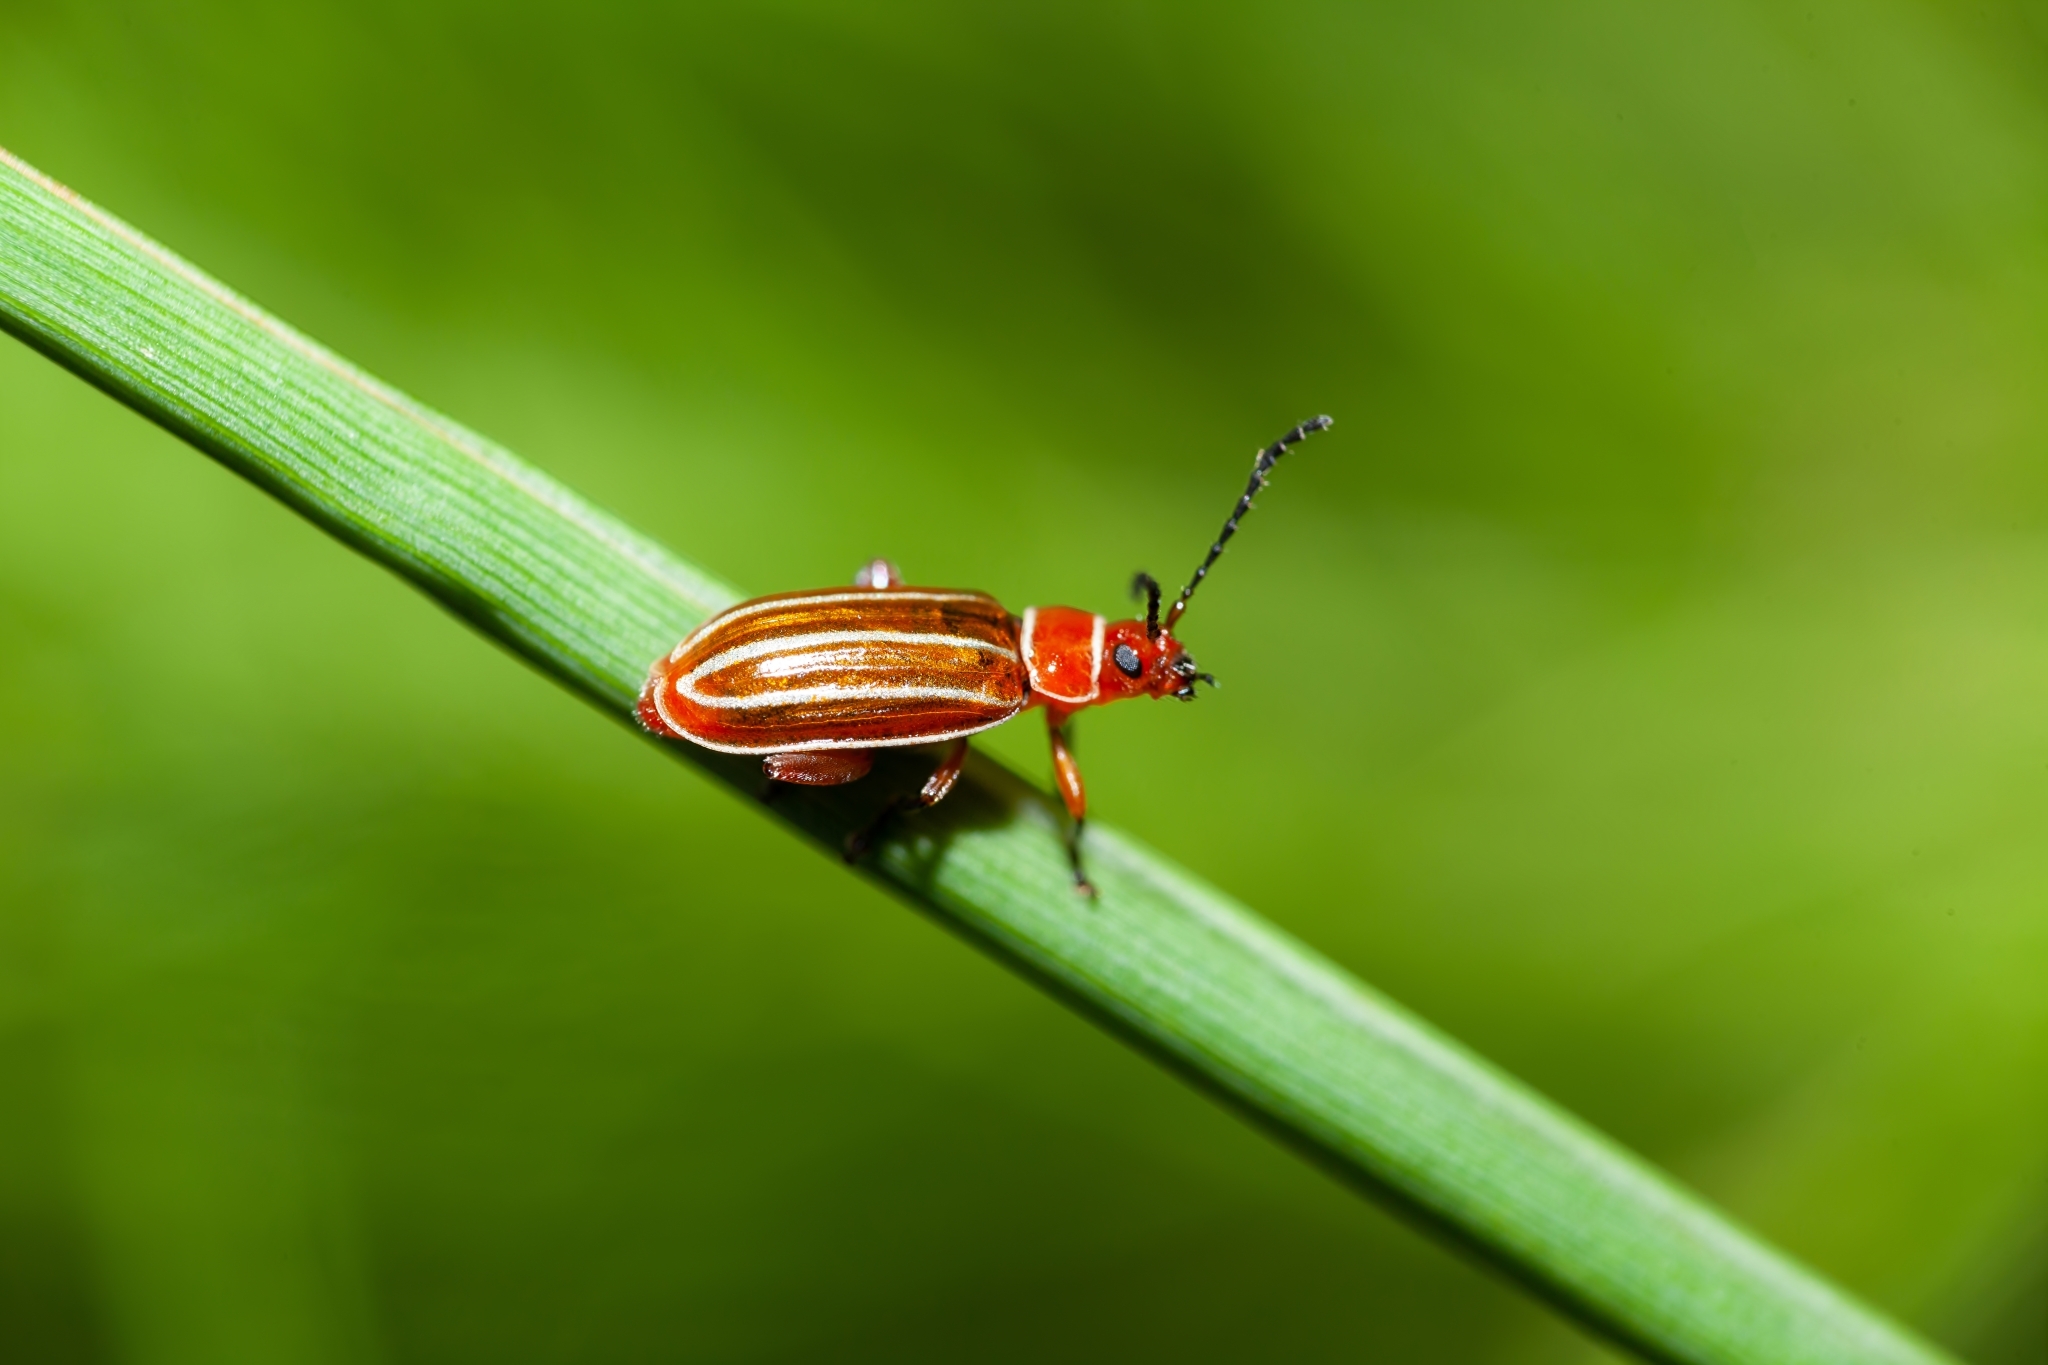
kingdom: Animalia
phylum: Arthropoda
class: Insecta
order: Coleoptera
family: Chrysomelidae
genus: Disonycha
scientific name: Disonycha conjugata
